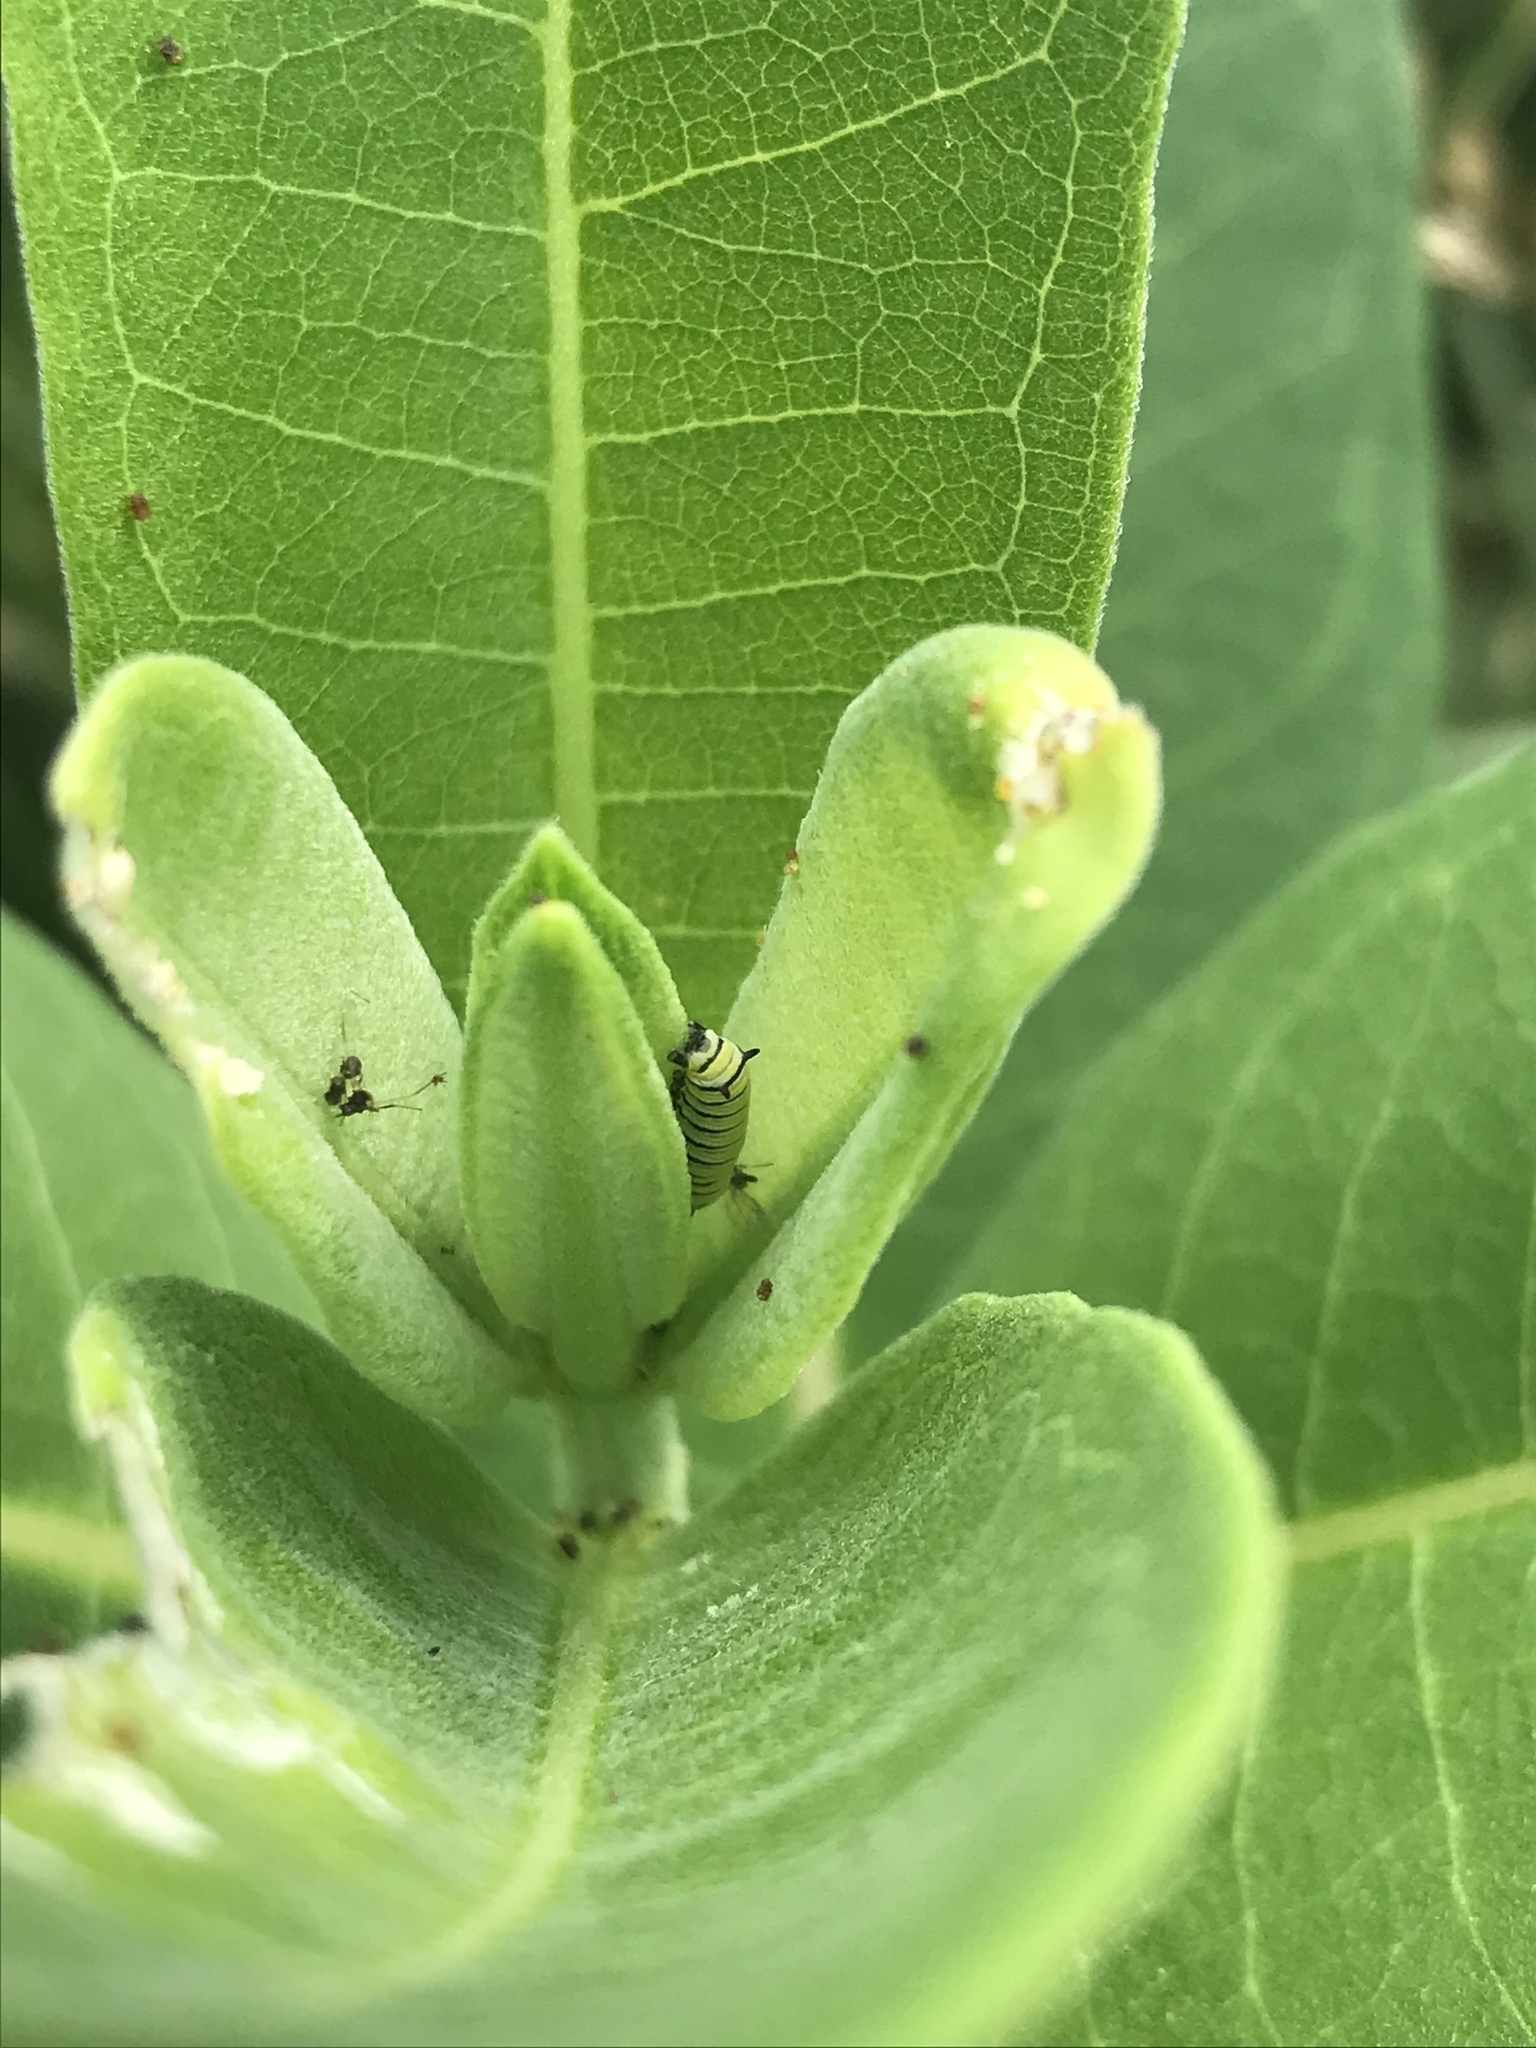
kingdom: Animalia
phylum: Arthropoda
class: Insecta
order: Lepidoptera
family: Nymphalidae
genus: Danaus
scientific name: Danaus plexippus
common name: Monarch
